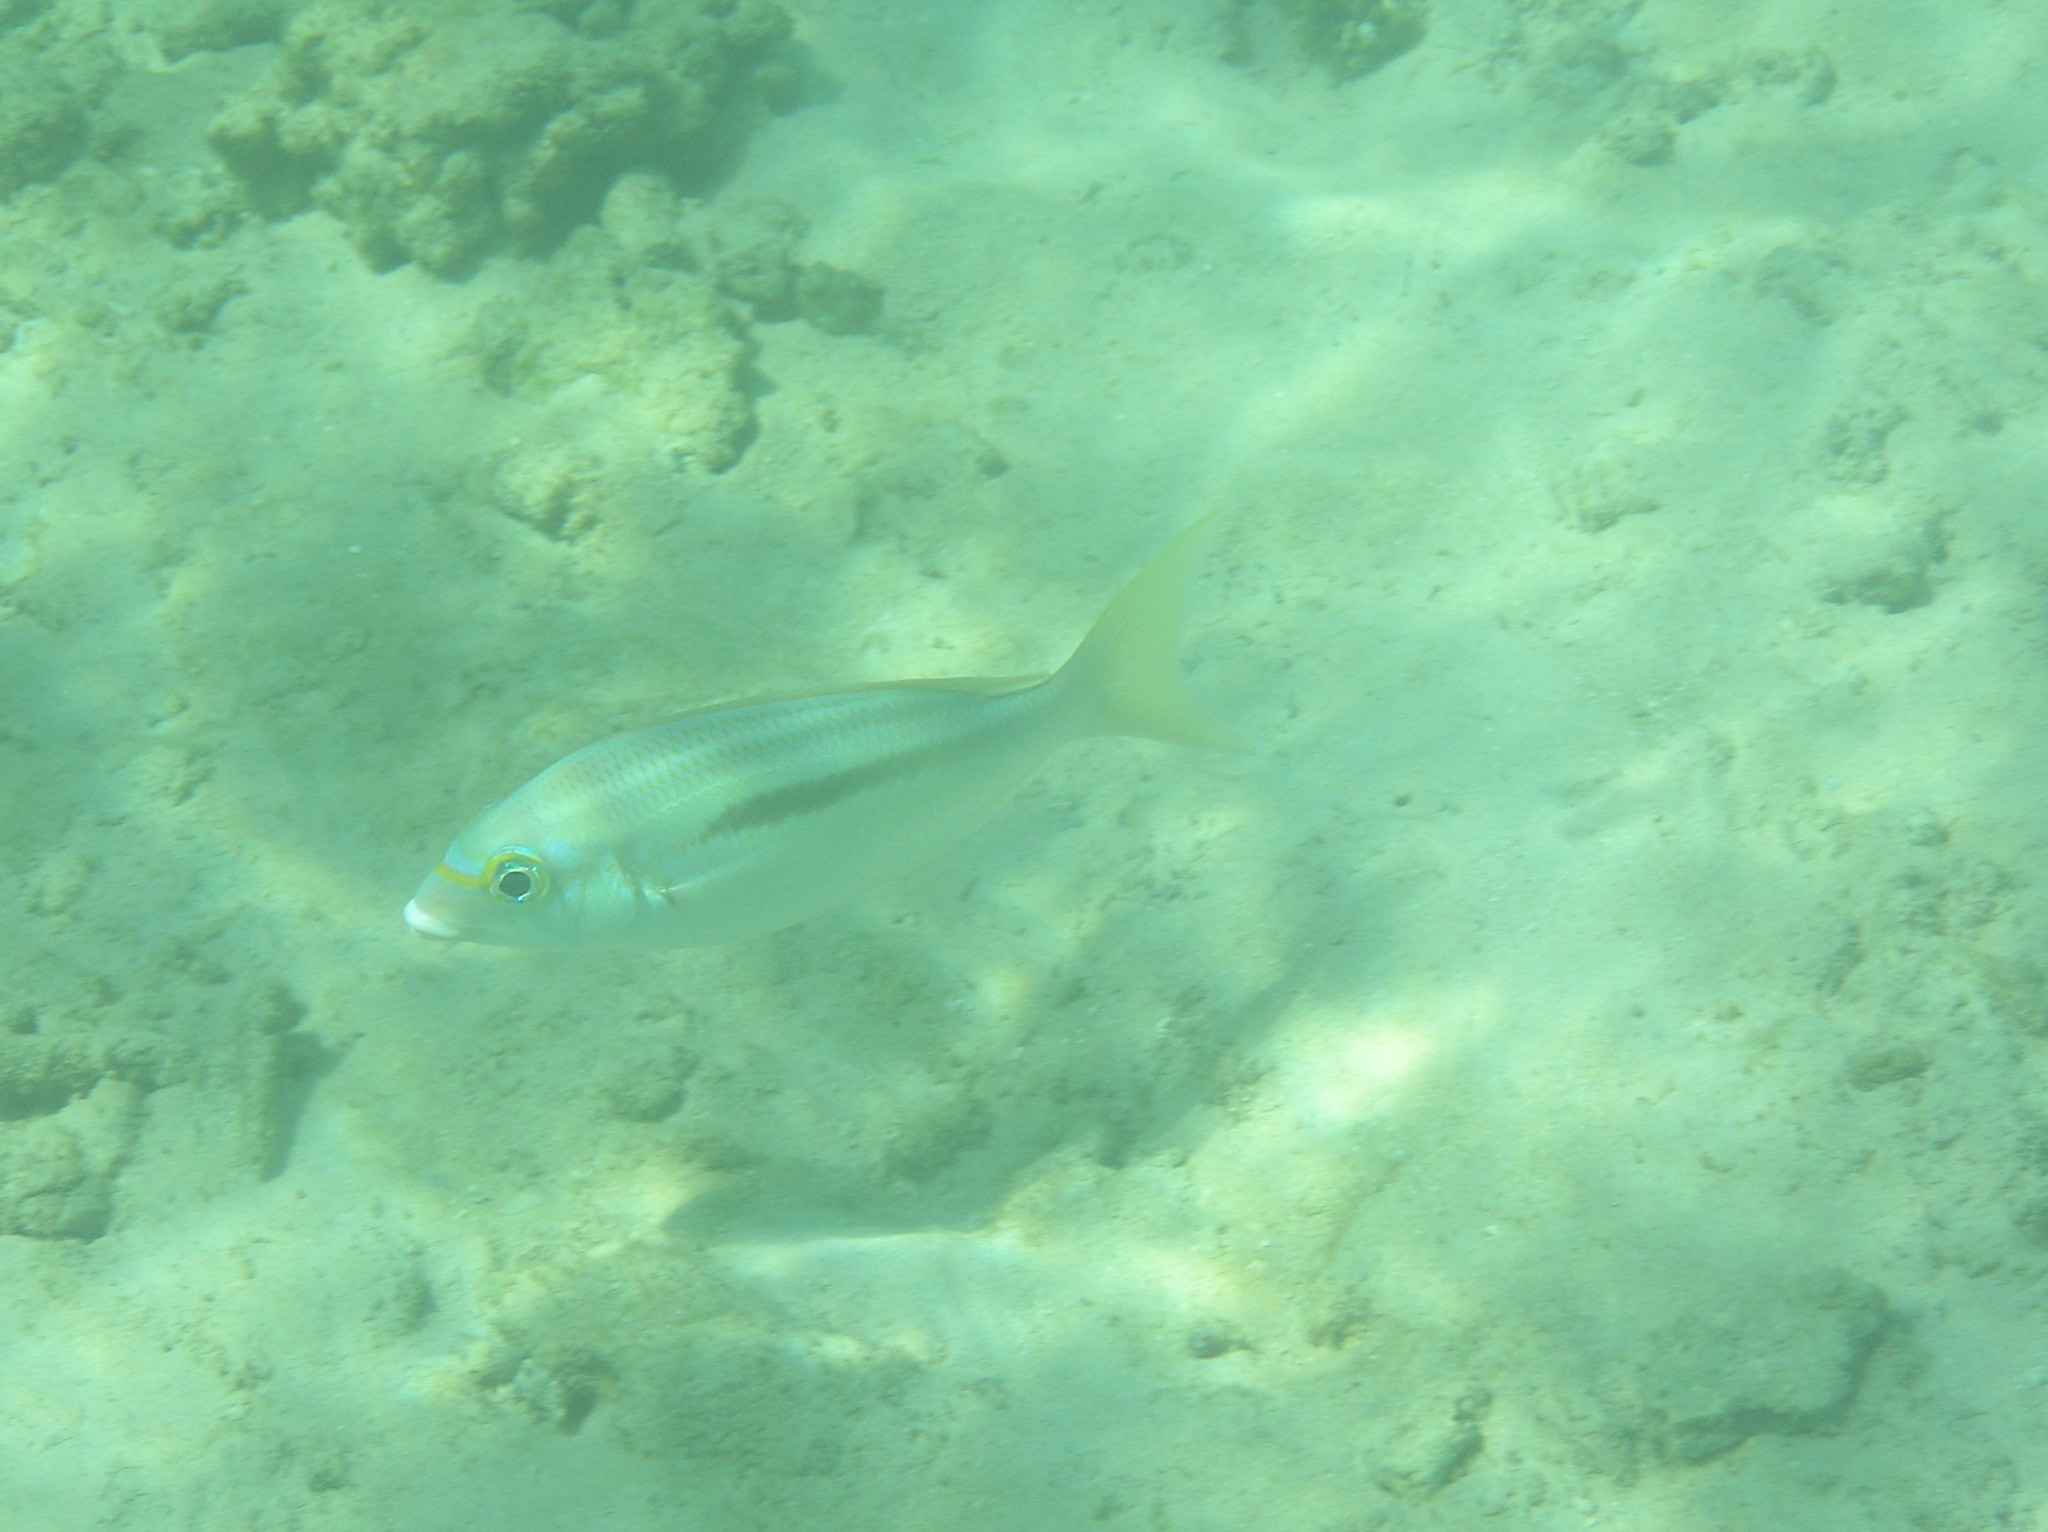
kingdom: Animalia
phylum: Chordata
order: Perciformes
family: Nemipteridae
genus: Scolopsis
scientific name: Scolopsis monogramma
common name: Monogrammed monocle bream
